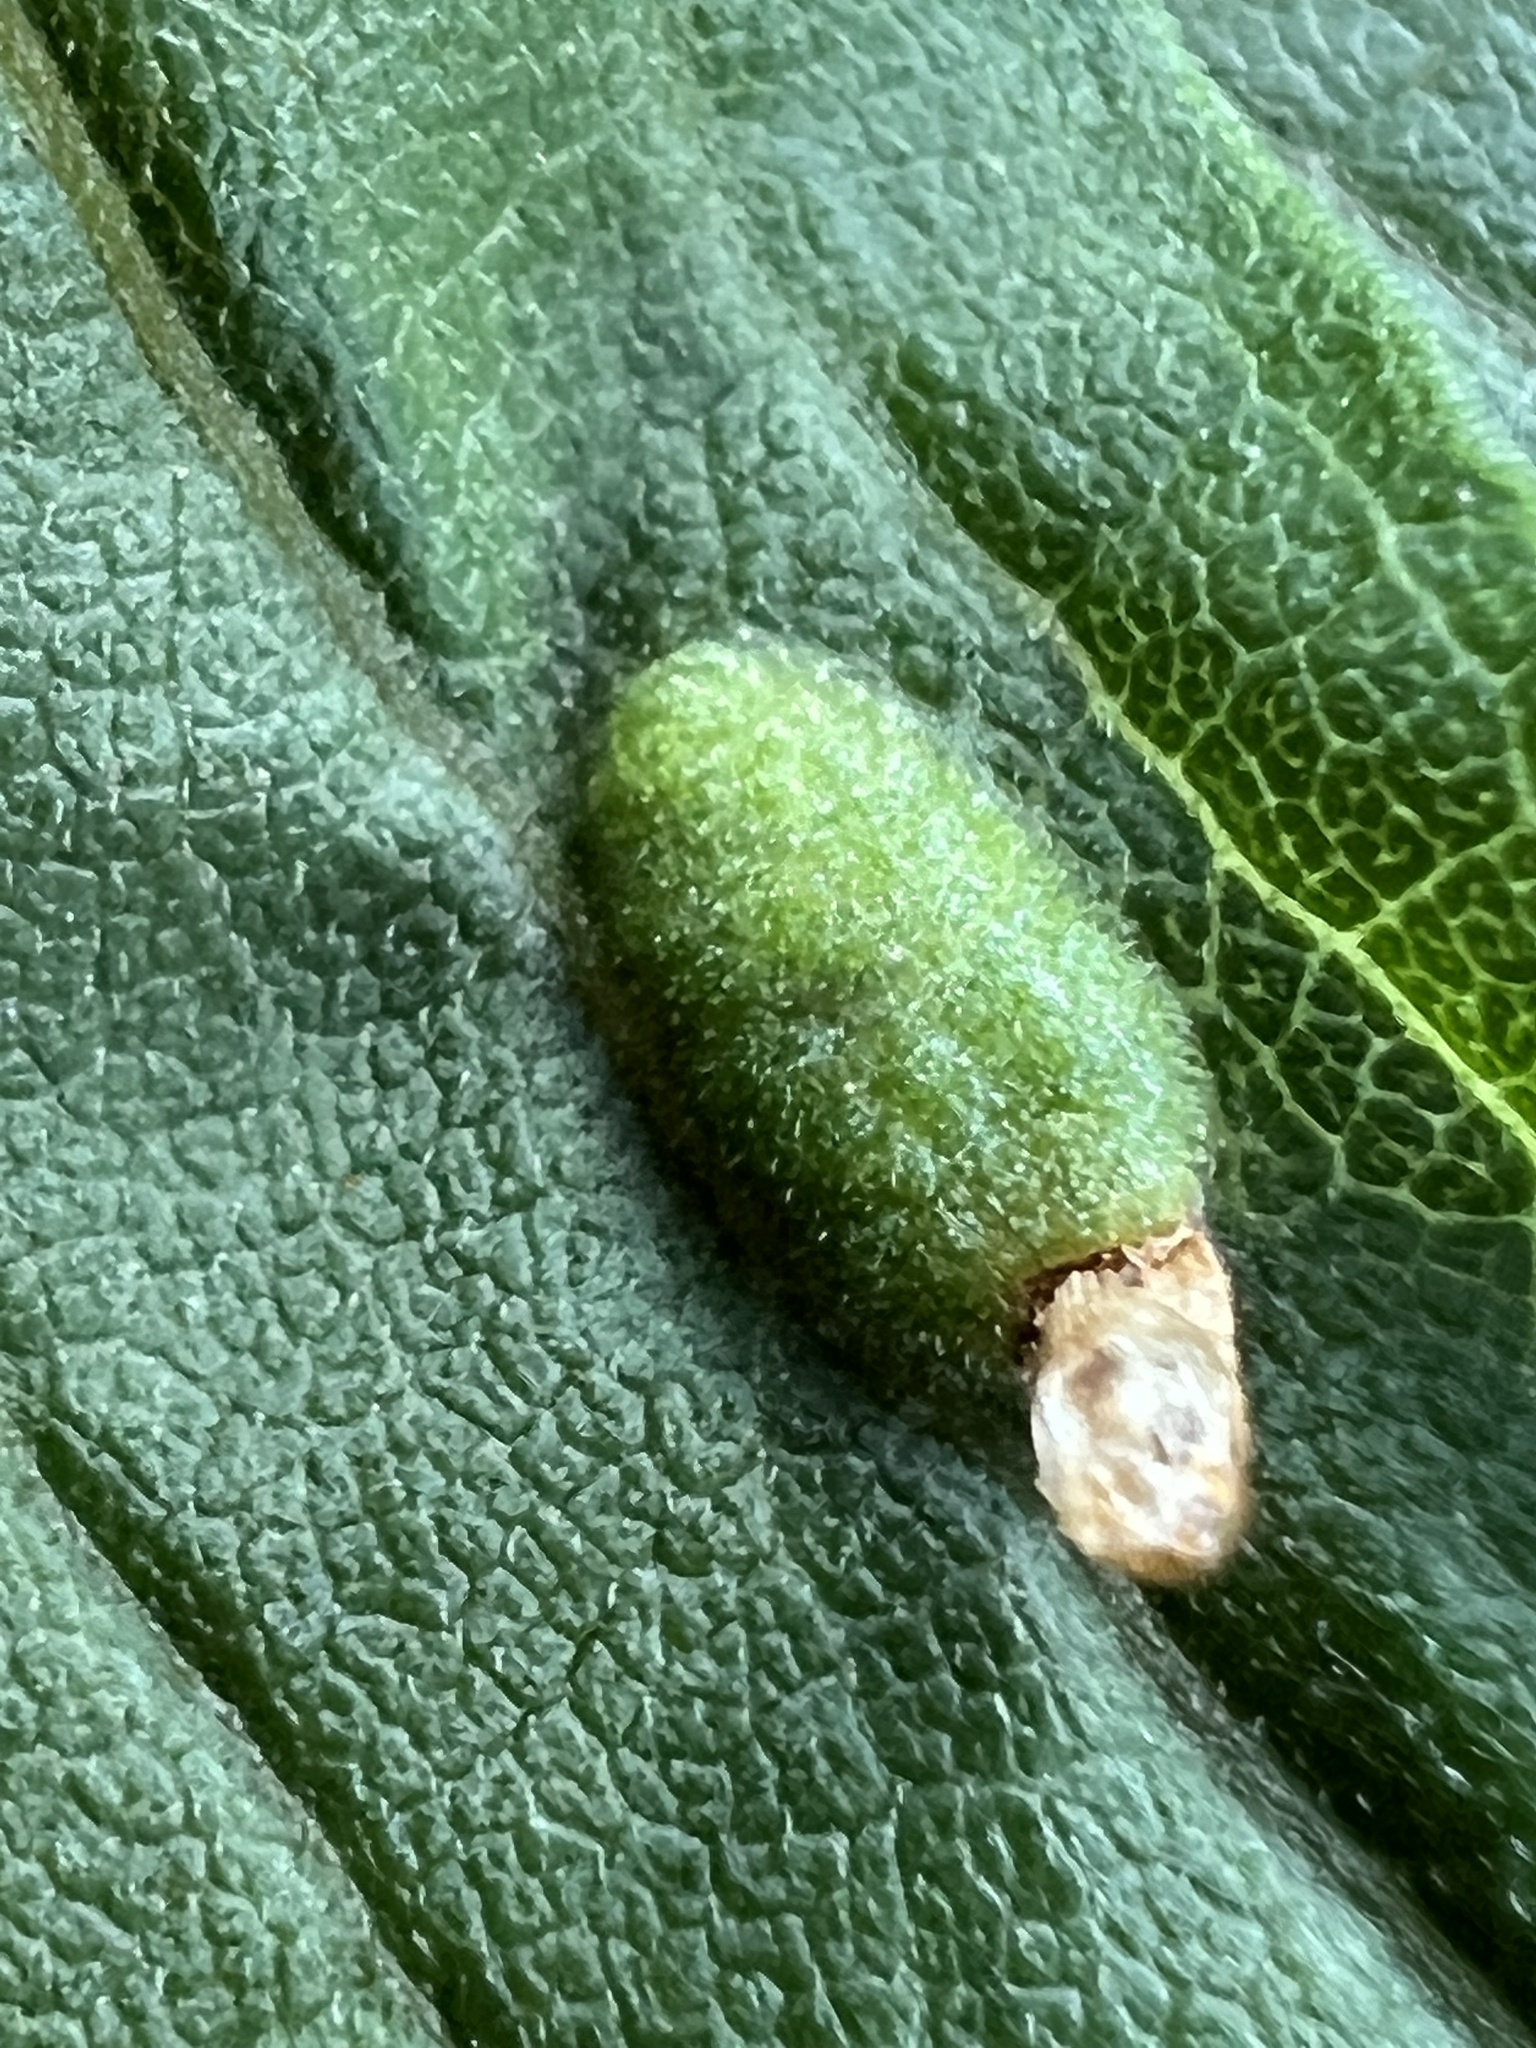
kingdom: Animalia
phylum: Arthropoda
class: Insecta
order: Diptera
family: Cecidomyiidae
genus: Asphondylia
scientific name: Asphondylia solidaginis
